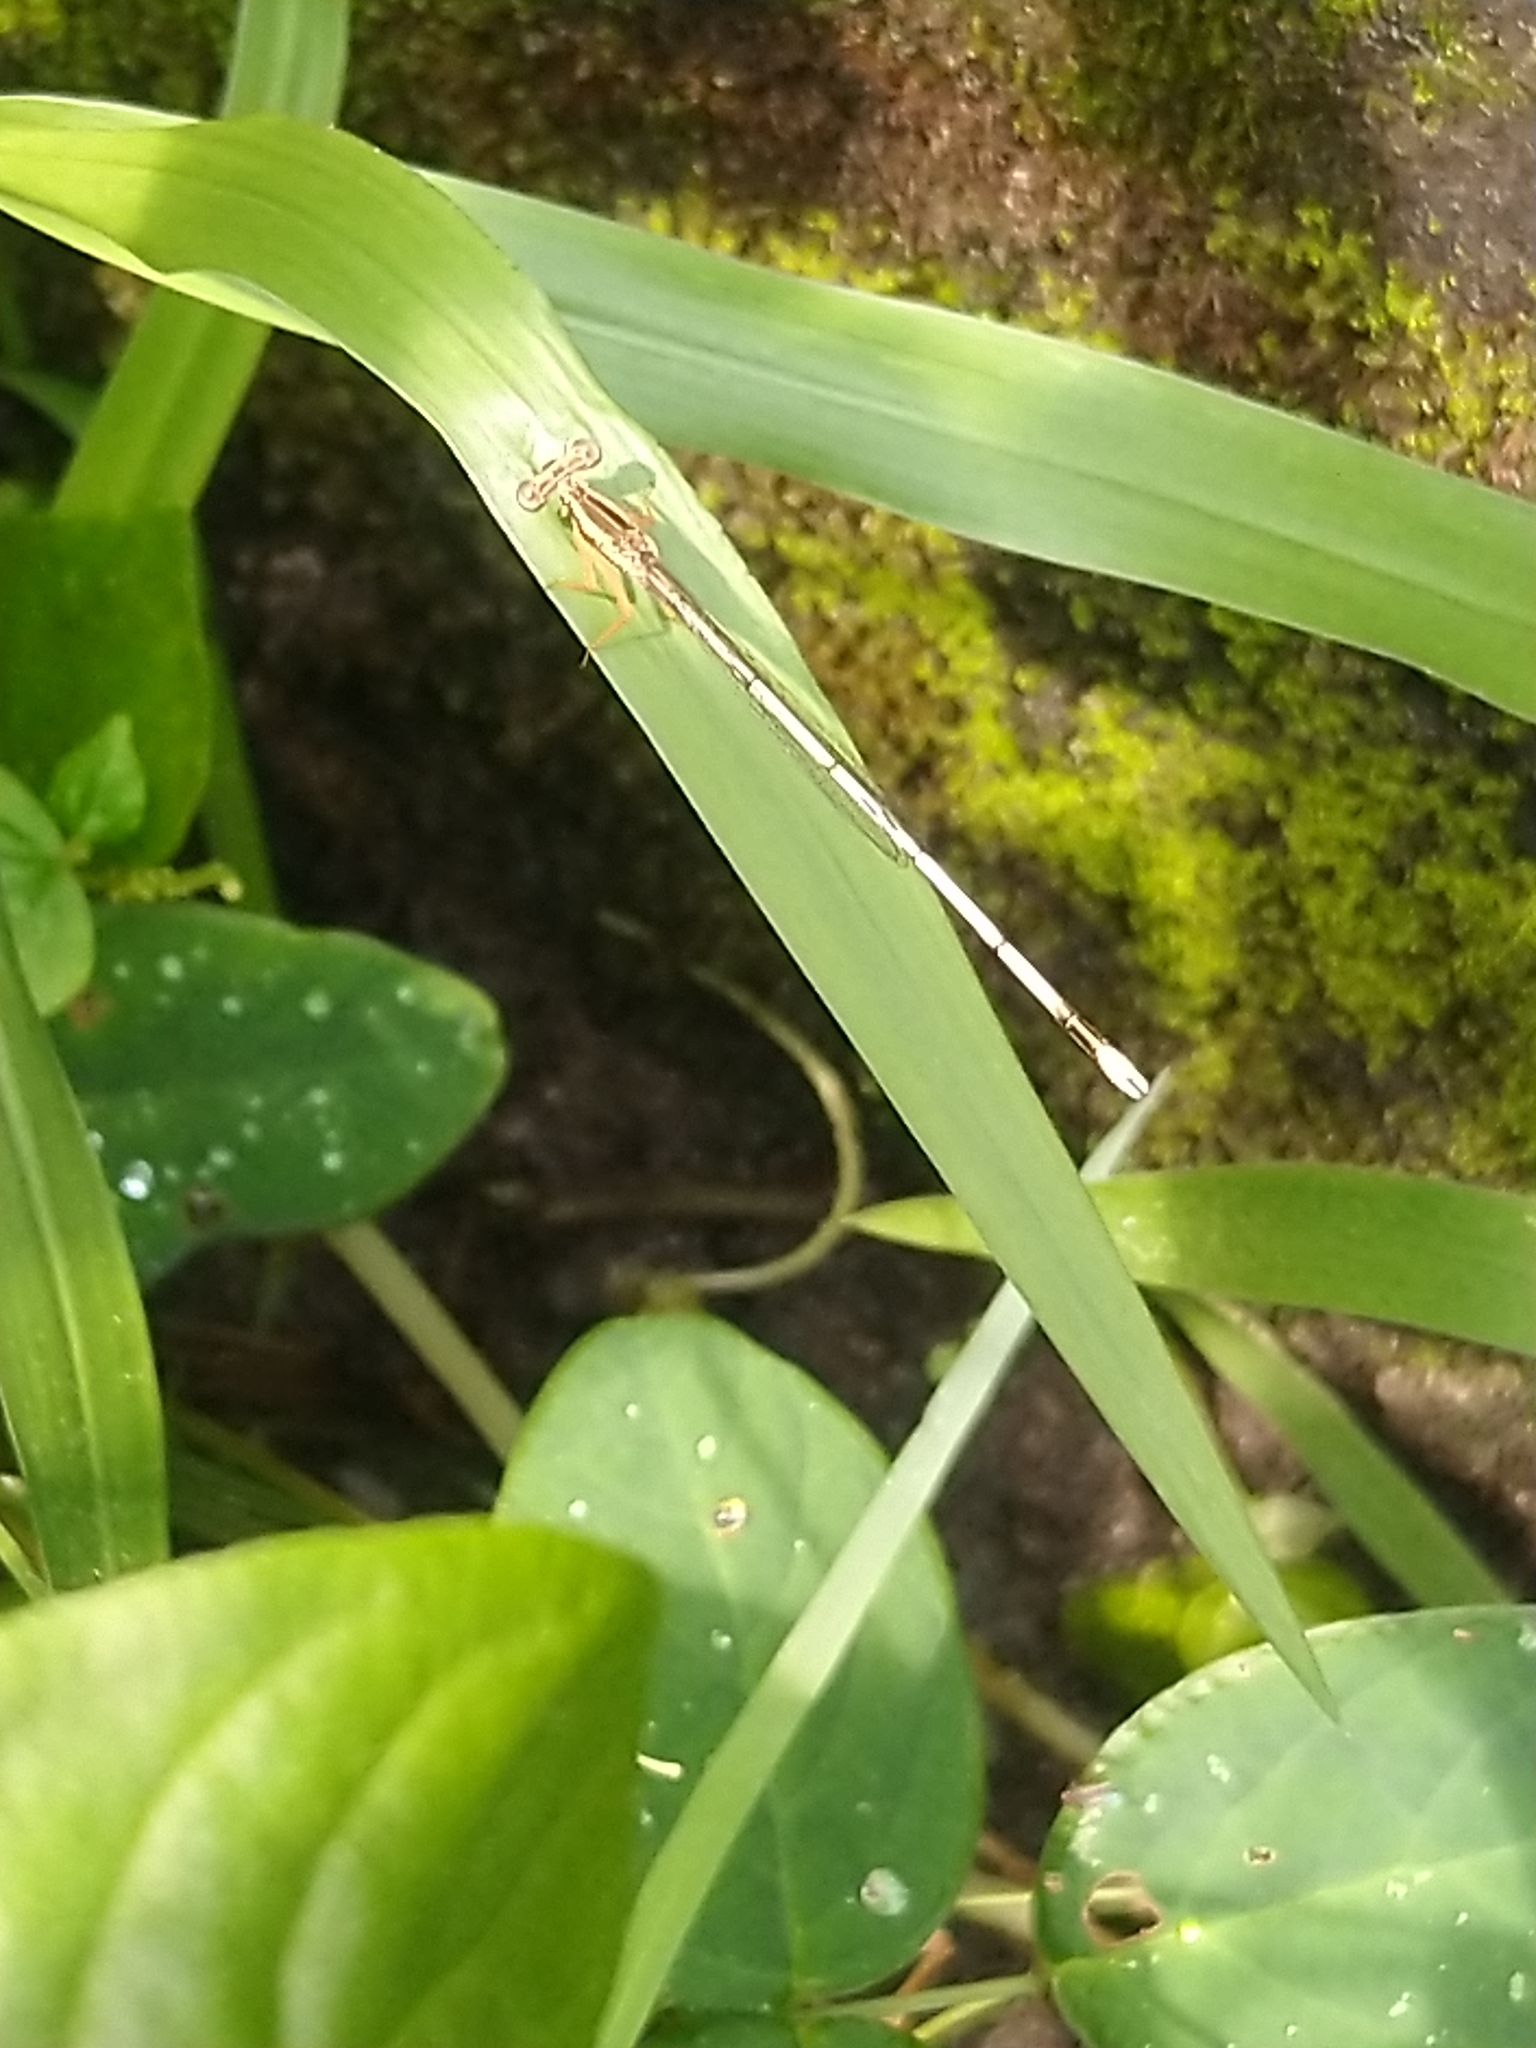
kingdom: Animalia
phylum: Arthropoda
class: Insecta
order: Odonata
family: Platycnemididae
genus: Copera
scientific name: Copera marginipes
